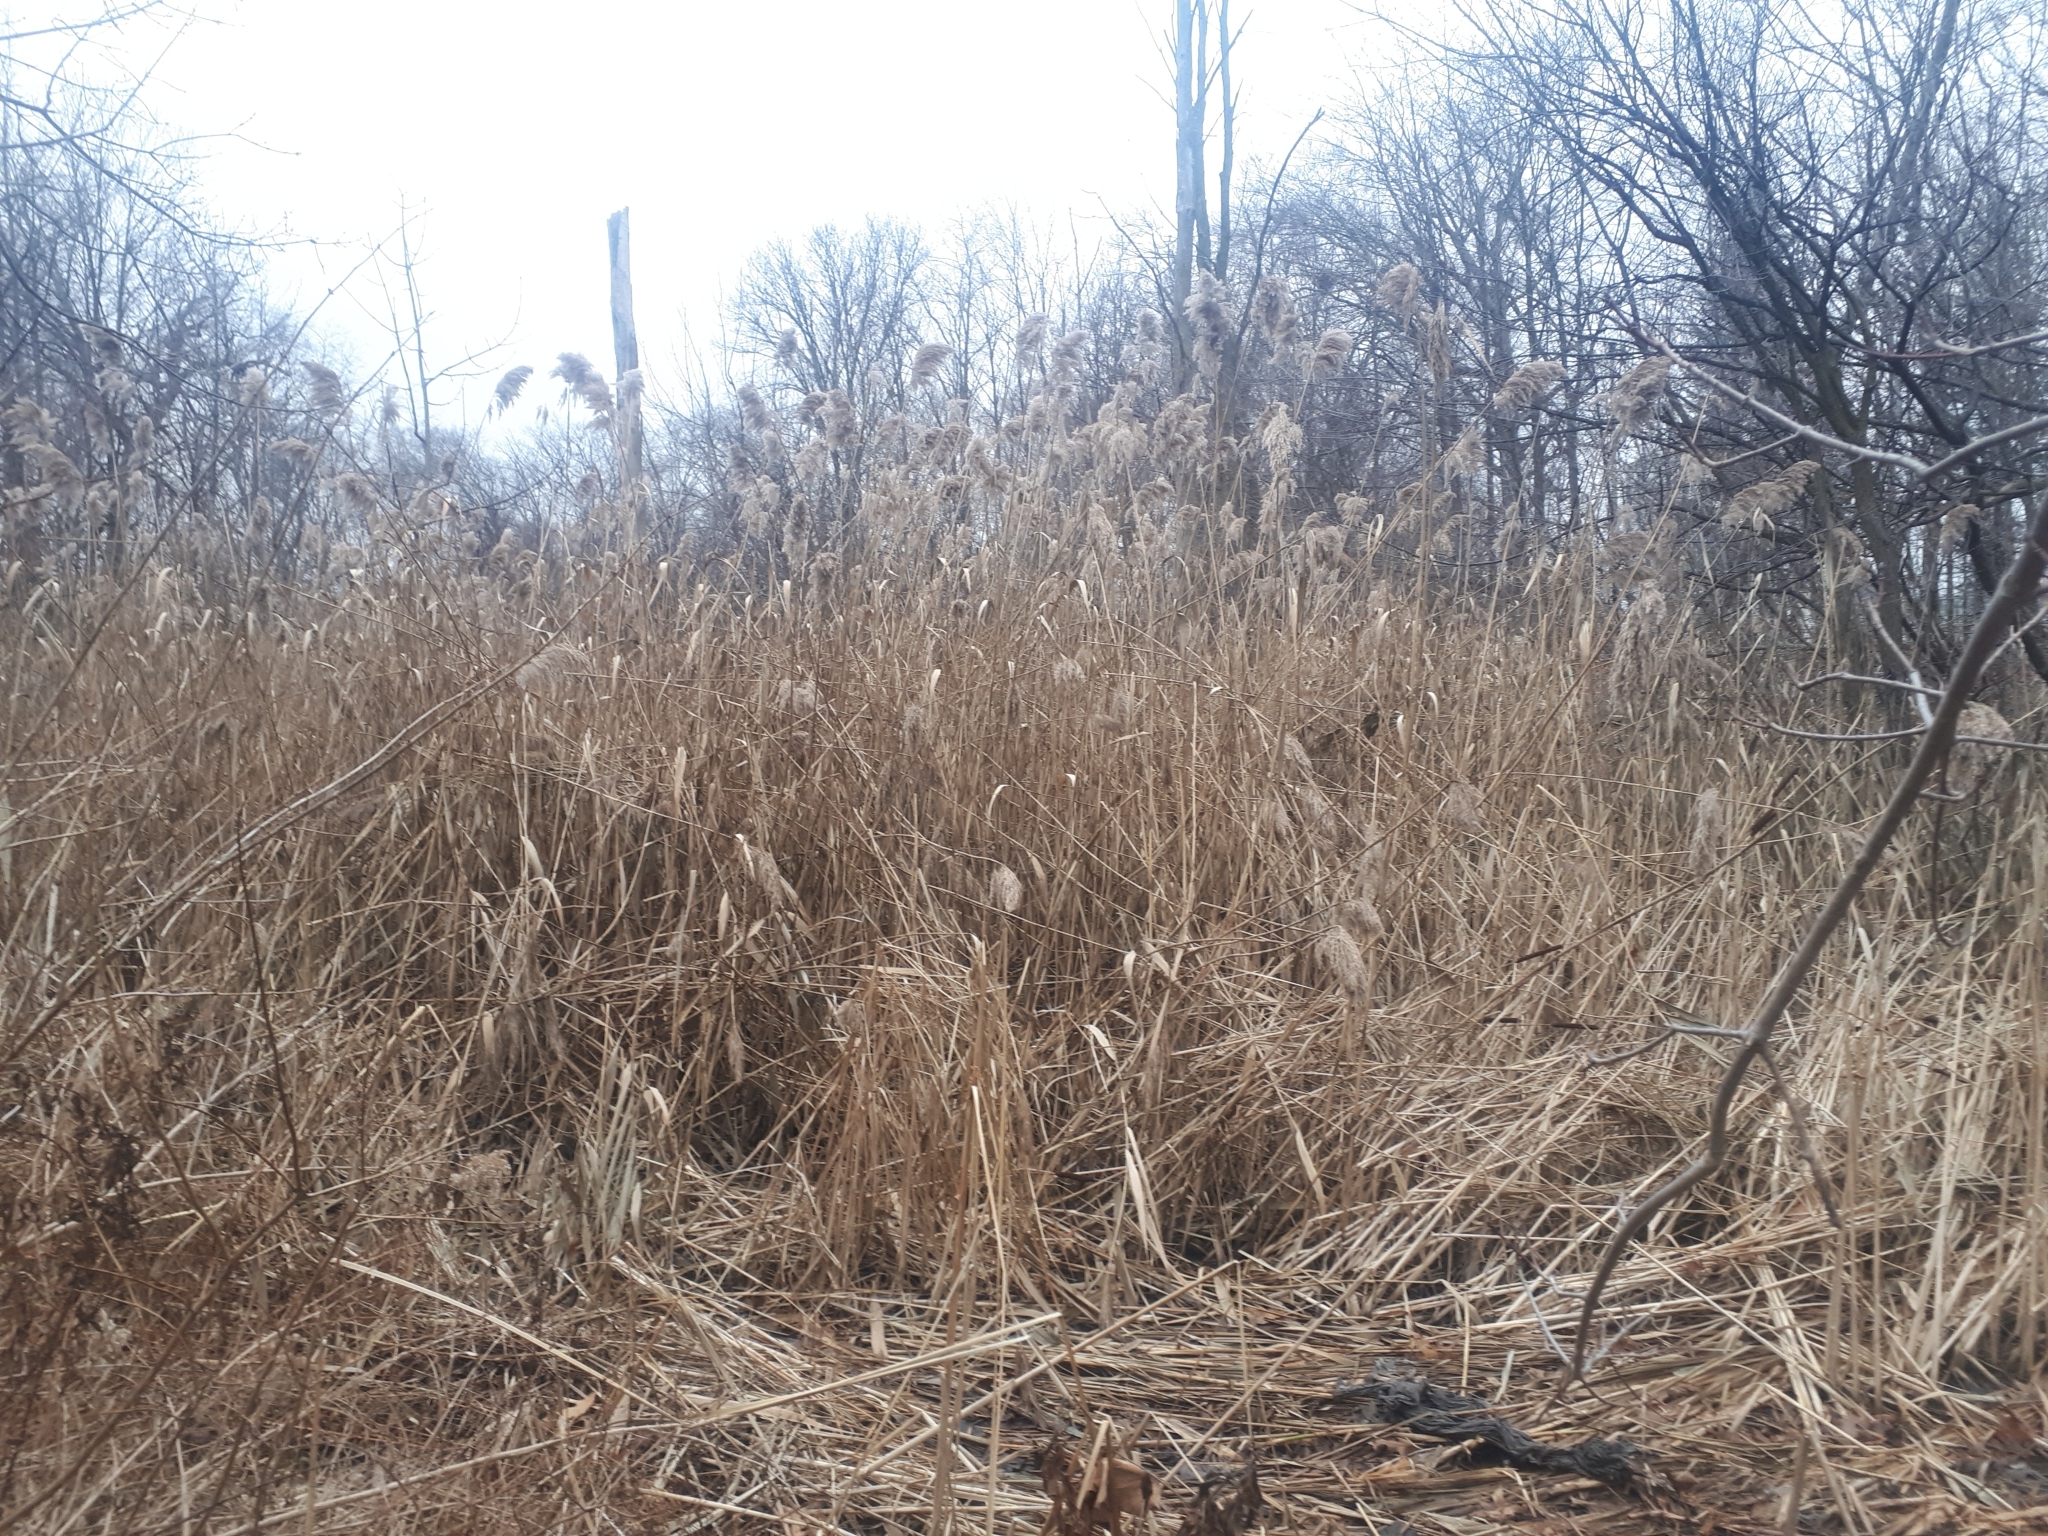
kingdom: Plantae
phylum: Tracheophyta
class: Liliopsida
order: Poales
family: Poaceae
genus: Phragmites
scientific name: Phragmites australis
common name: Common reed
